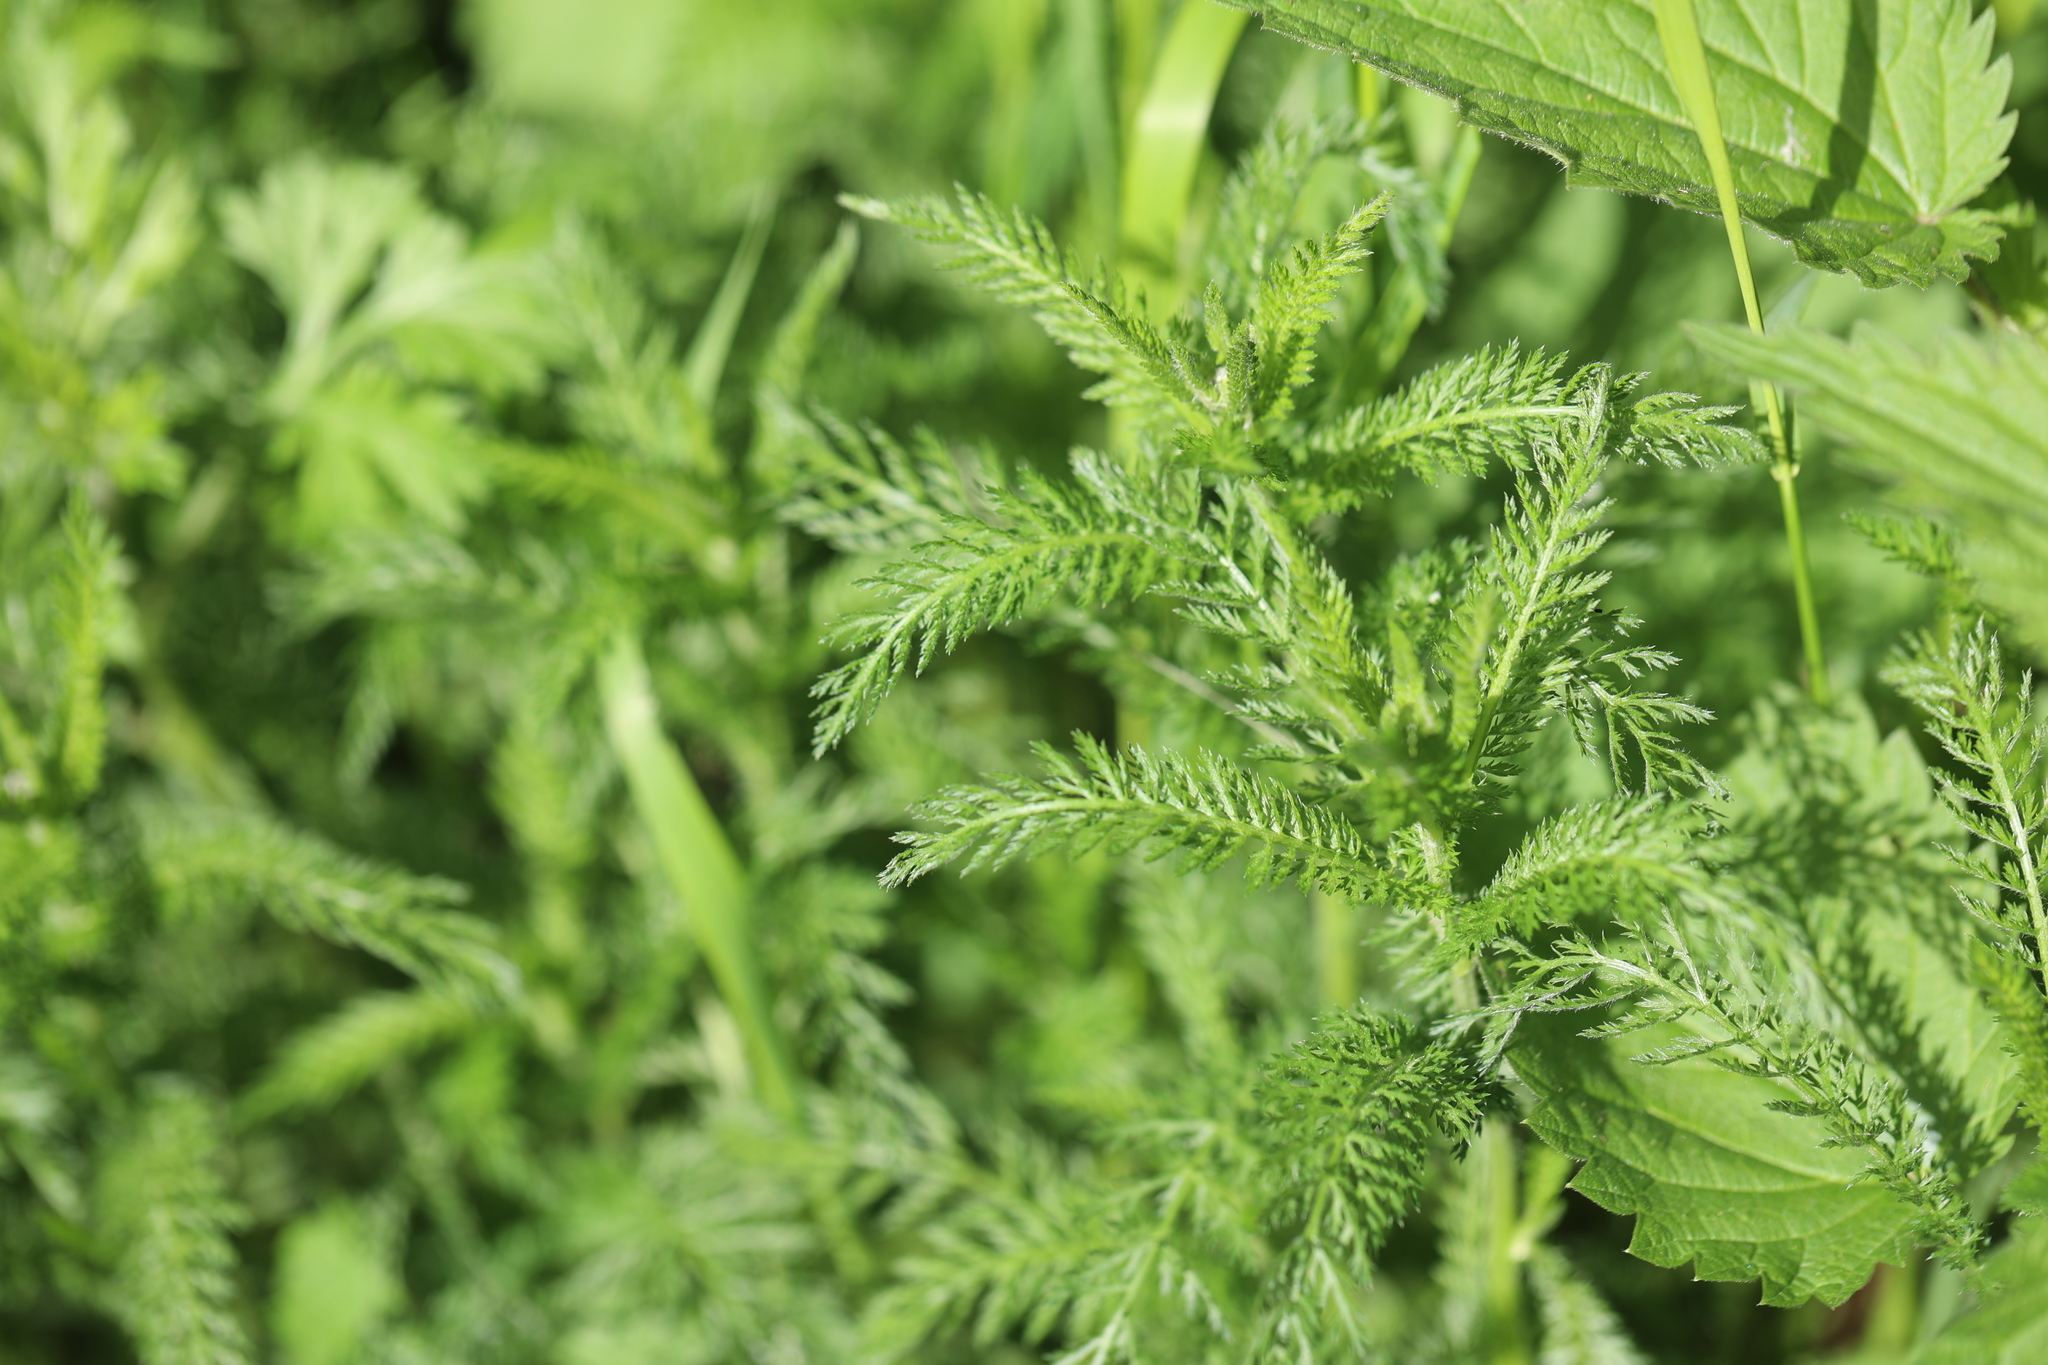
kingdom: Plantae
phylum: Tracheophyta
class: Magnoliopsida
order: Asterales
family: Asteraceae
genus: Achillea
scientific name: Achillea millefolium
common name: Yarrow
